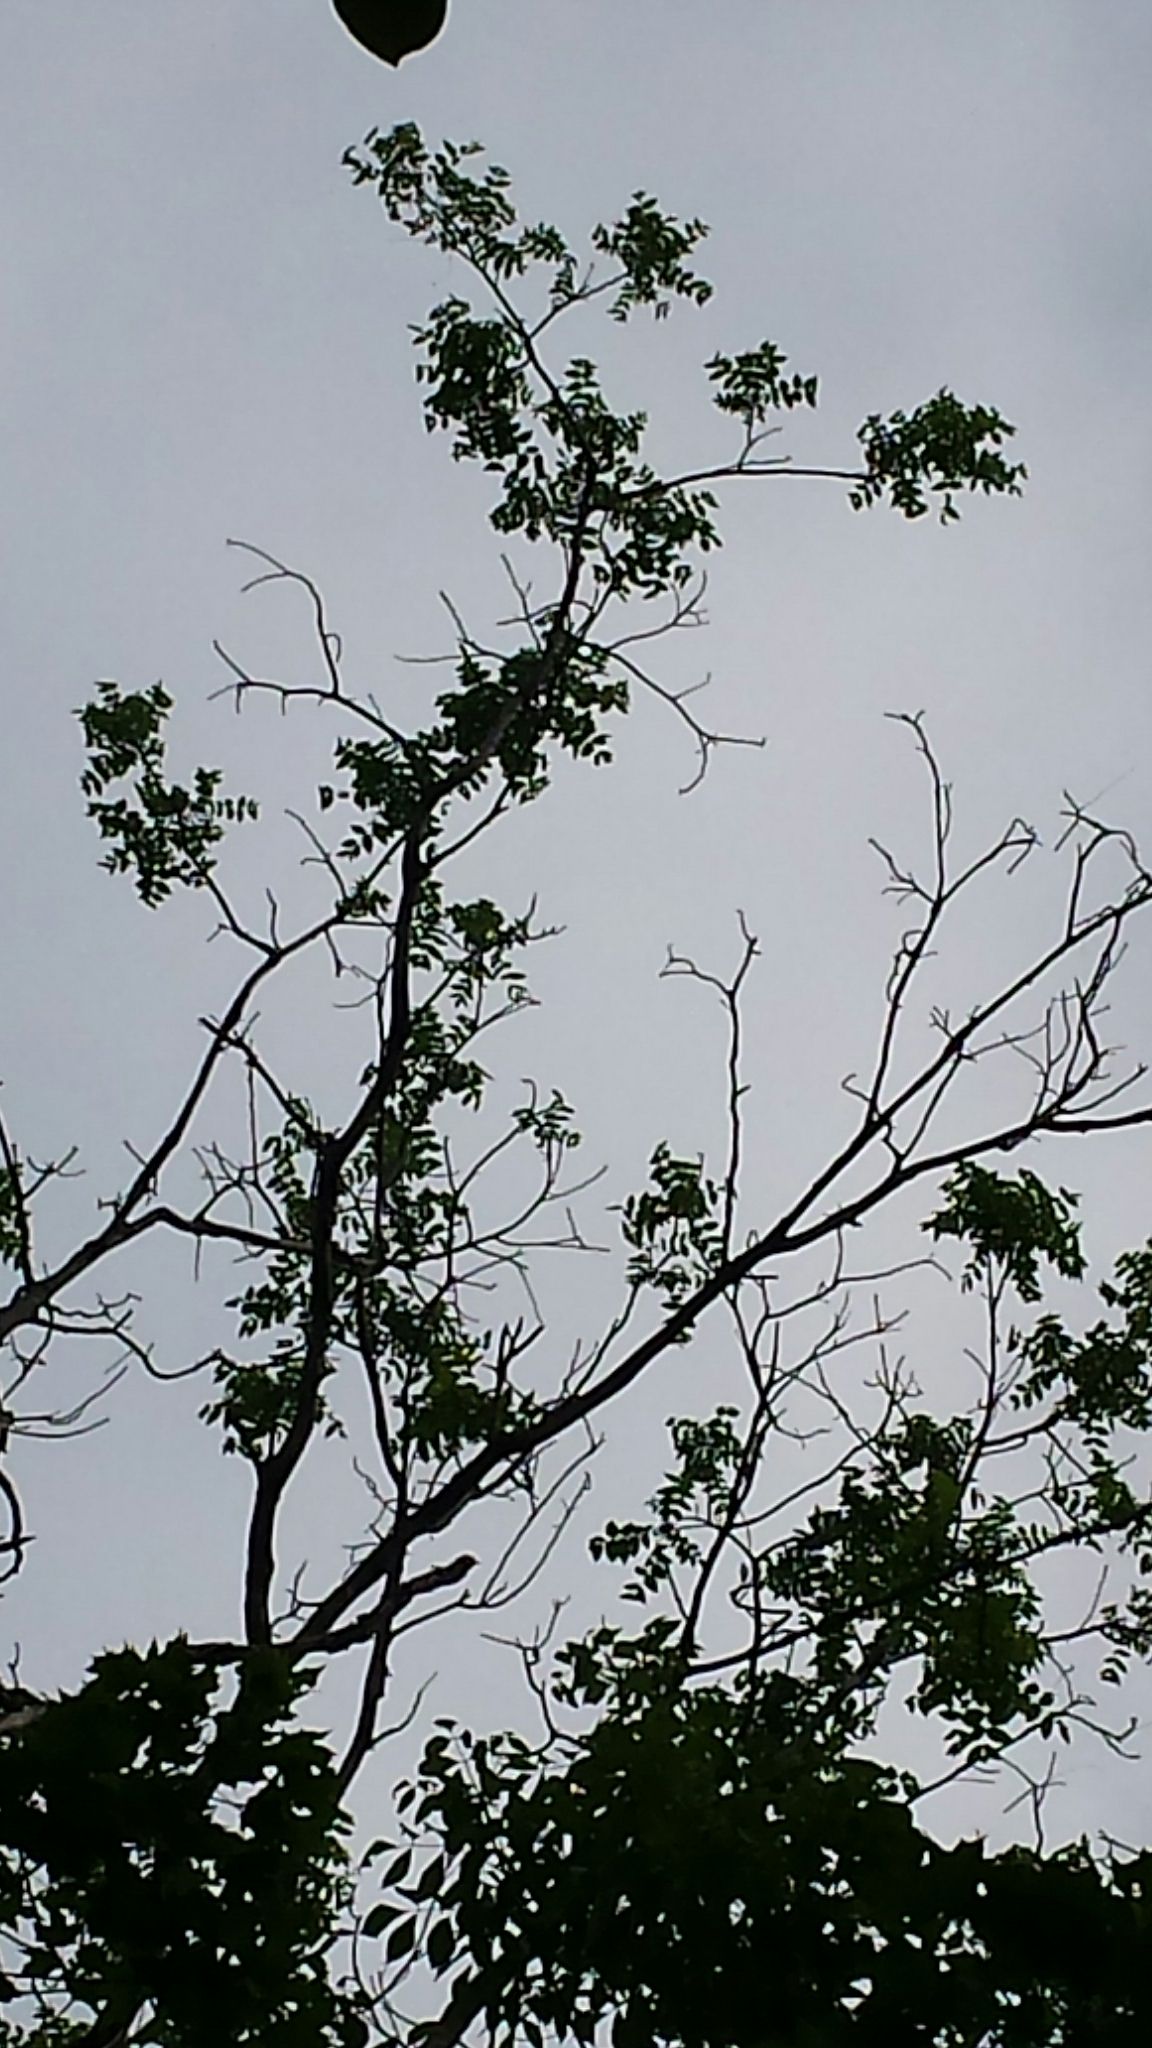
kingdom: Plantae
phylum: Tracheophyta
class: Magnoliopsida
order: Fagales
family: Juglandaceae
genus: Juglans
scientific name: Juglans cinerea
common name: Butternut
